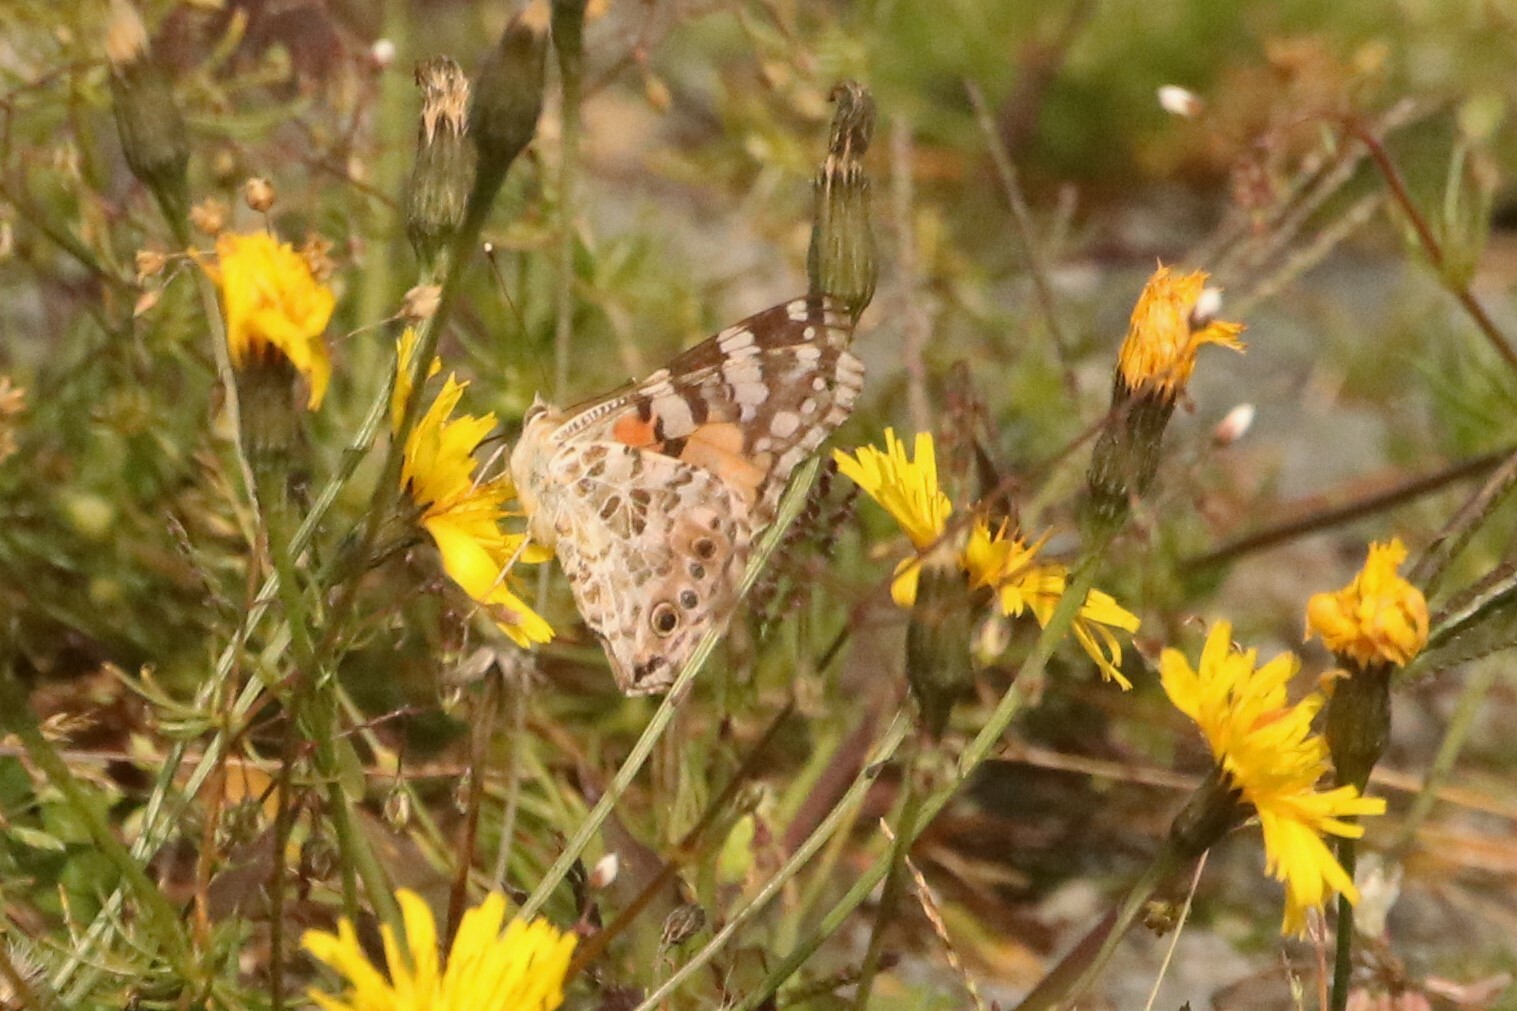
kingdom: Animalia
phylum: Arthropoda
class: Insecta
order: Lepidoptera
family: Nymphalidae
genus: Vanessa
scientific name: Vanessa cardui
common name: Painted lady
